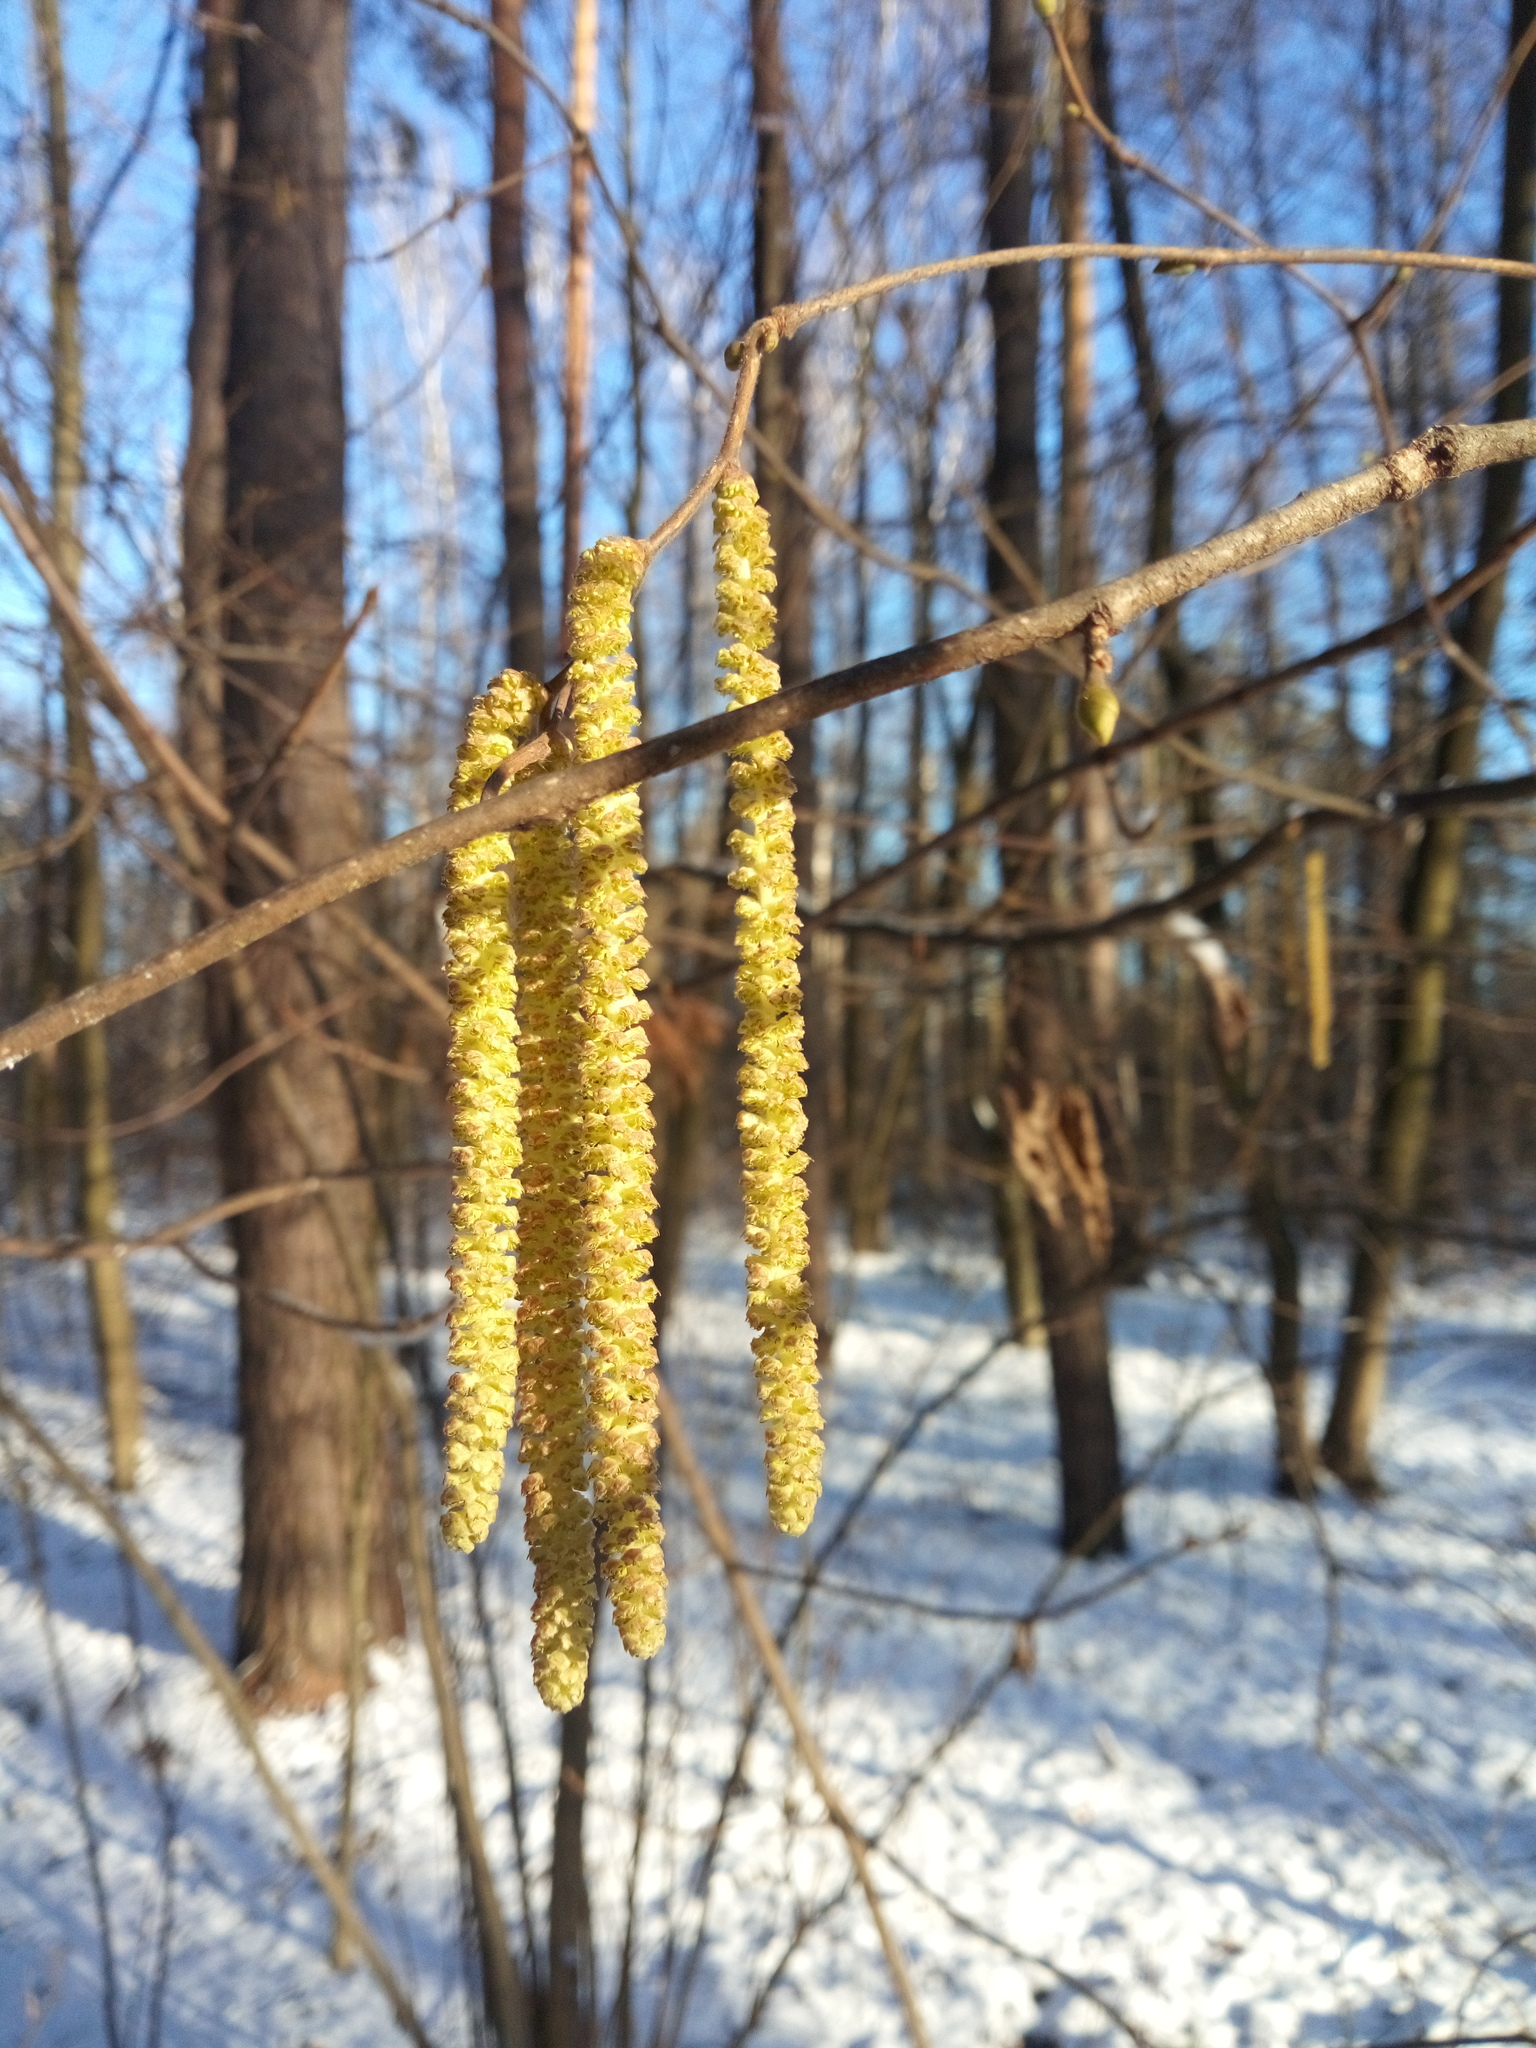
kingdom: Plantae
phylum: Tracheophyta
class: Magnoliopsida
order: Fagales
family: Betulaceae
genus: Corylus
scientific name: Corylus avellana
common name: European hazel
